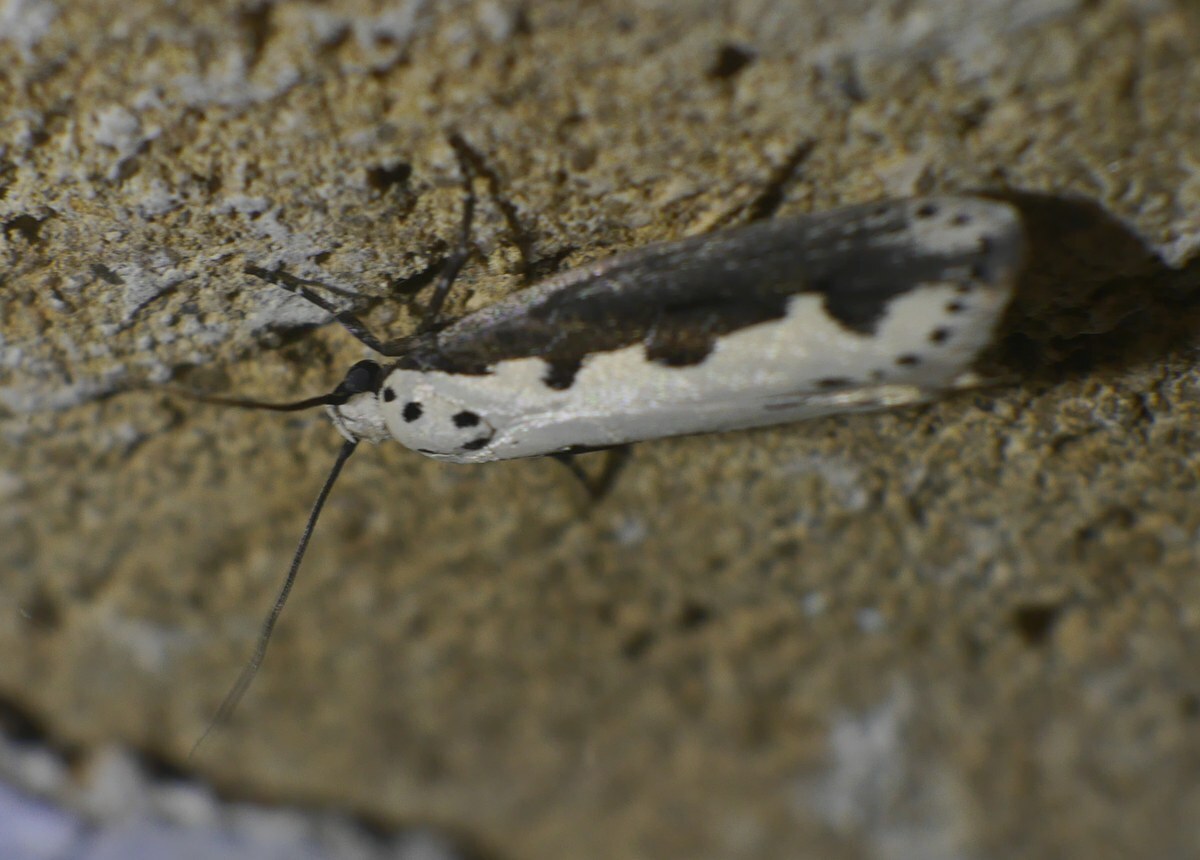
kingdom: Animalia
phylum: Arthropoda
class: Insecta
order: Lepidoptera
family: Ethmiidae
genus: Ethmia
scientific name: Ethmia bipunctella
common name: Bordered ermel
